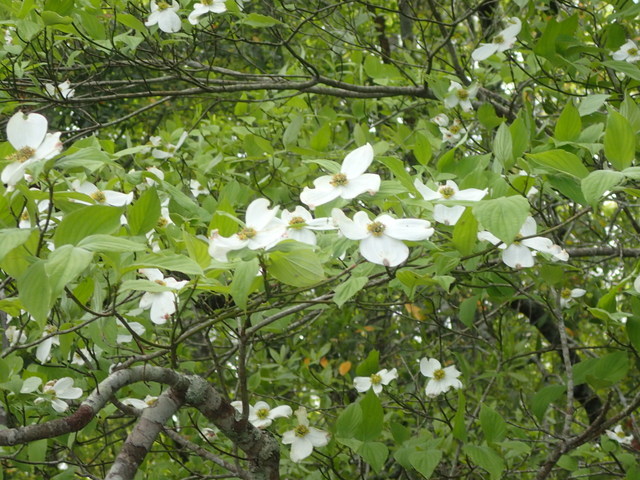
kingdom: Plantae
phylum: Tracheophyta
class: Magnoliopsida
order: Cornales
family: Cornaceae
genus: Cornus
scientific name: Cornus florida
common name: Flowering dogwood
